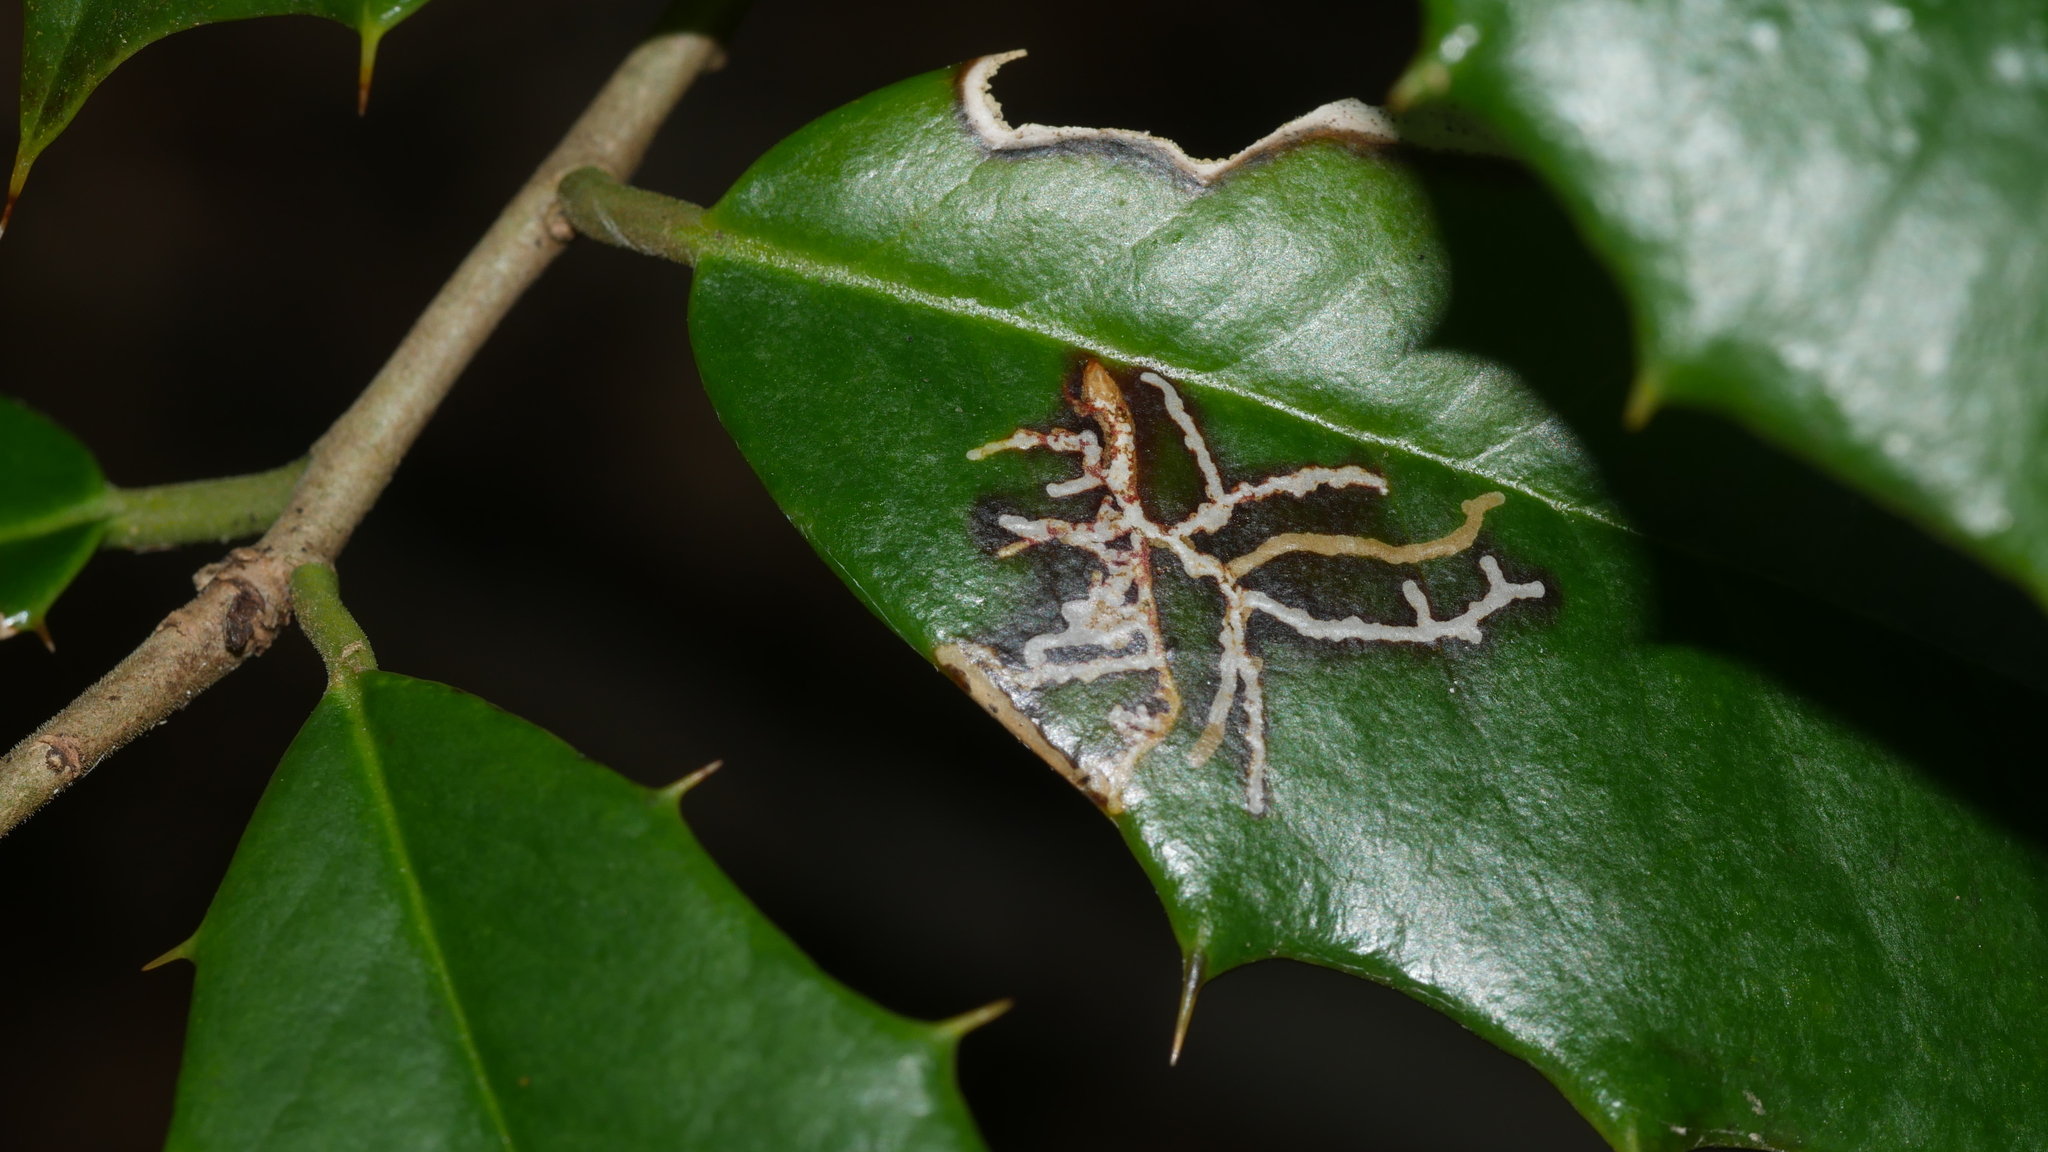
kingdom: Animalia
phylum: Arthropoda
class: Insecta
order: Lepidoptera
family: Tortricidae
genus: Rhopobota
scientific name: Rhopobota
